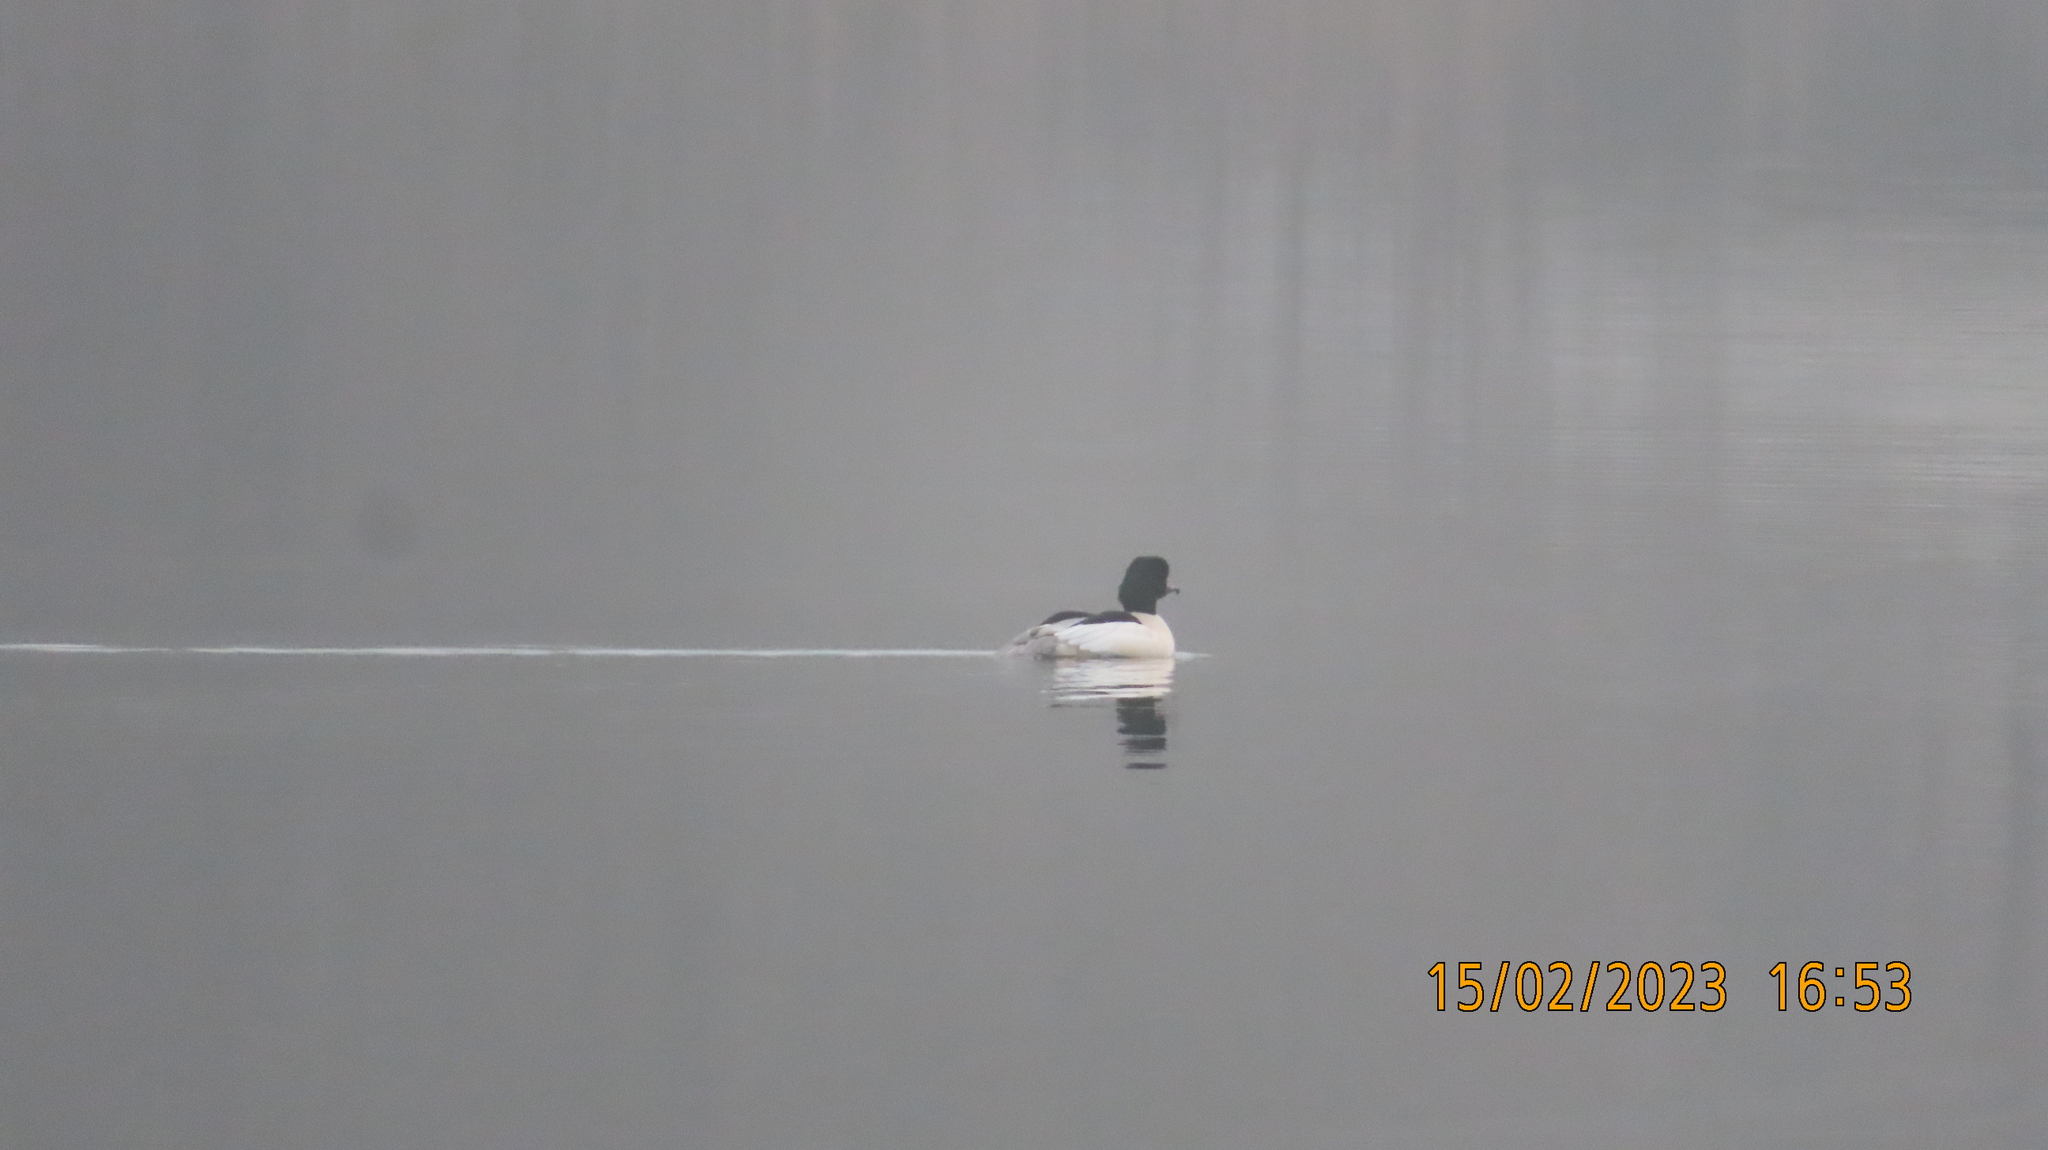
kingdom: Animalia
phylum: Chordata
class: Aves
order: Anseriformes
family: Anatidae
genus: Mergus
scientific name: Mergus merganser
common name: Common merganser
